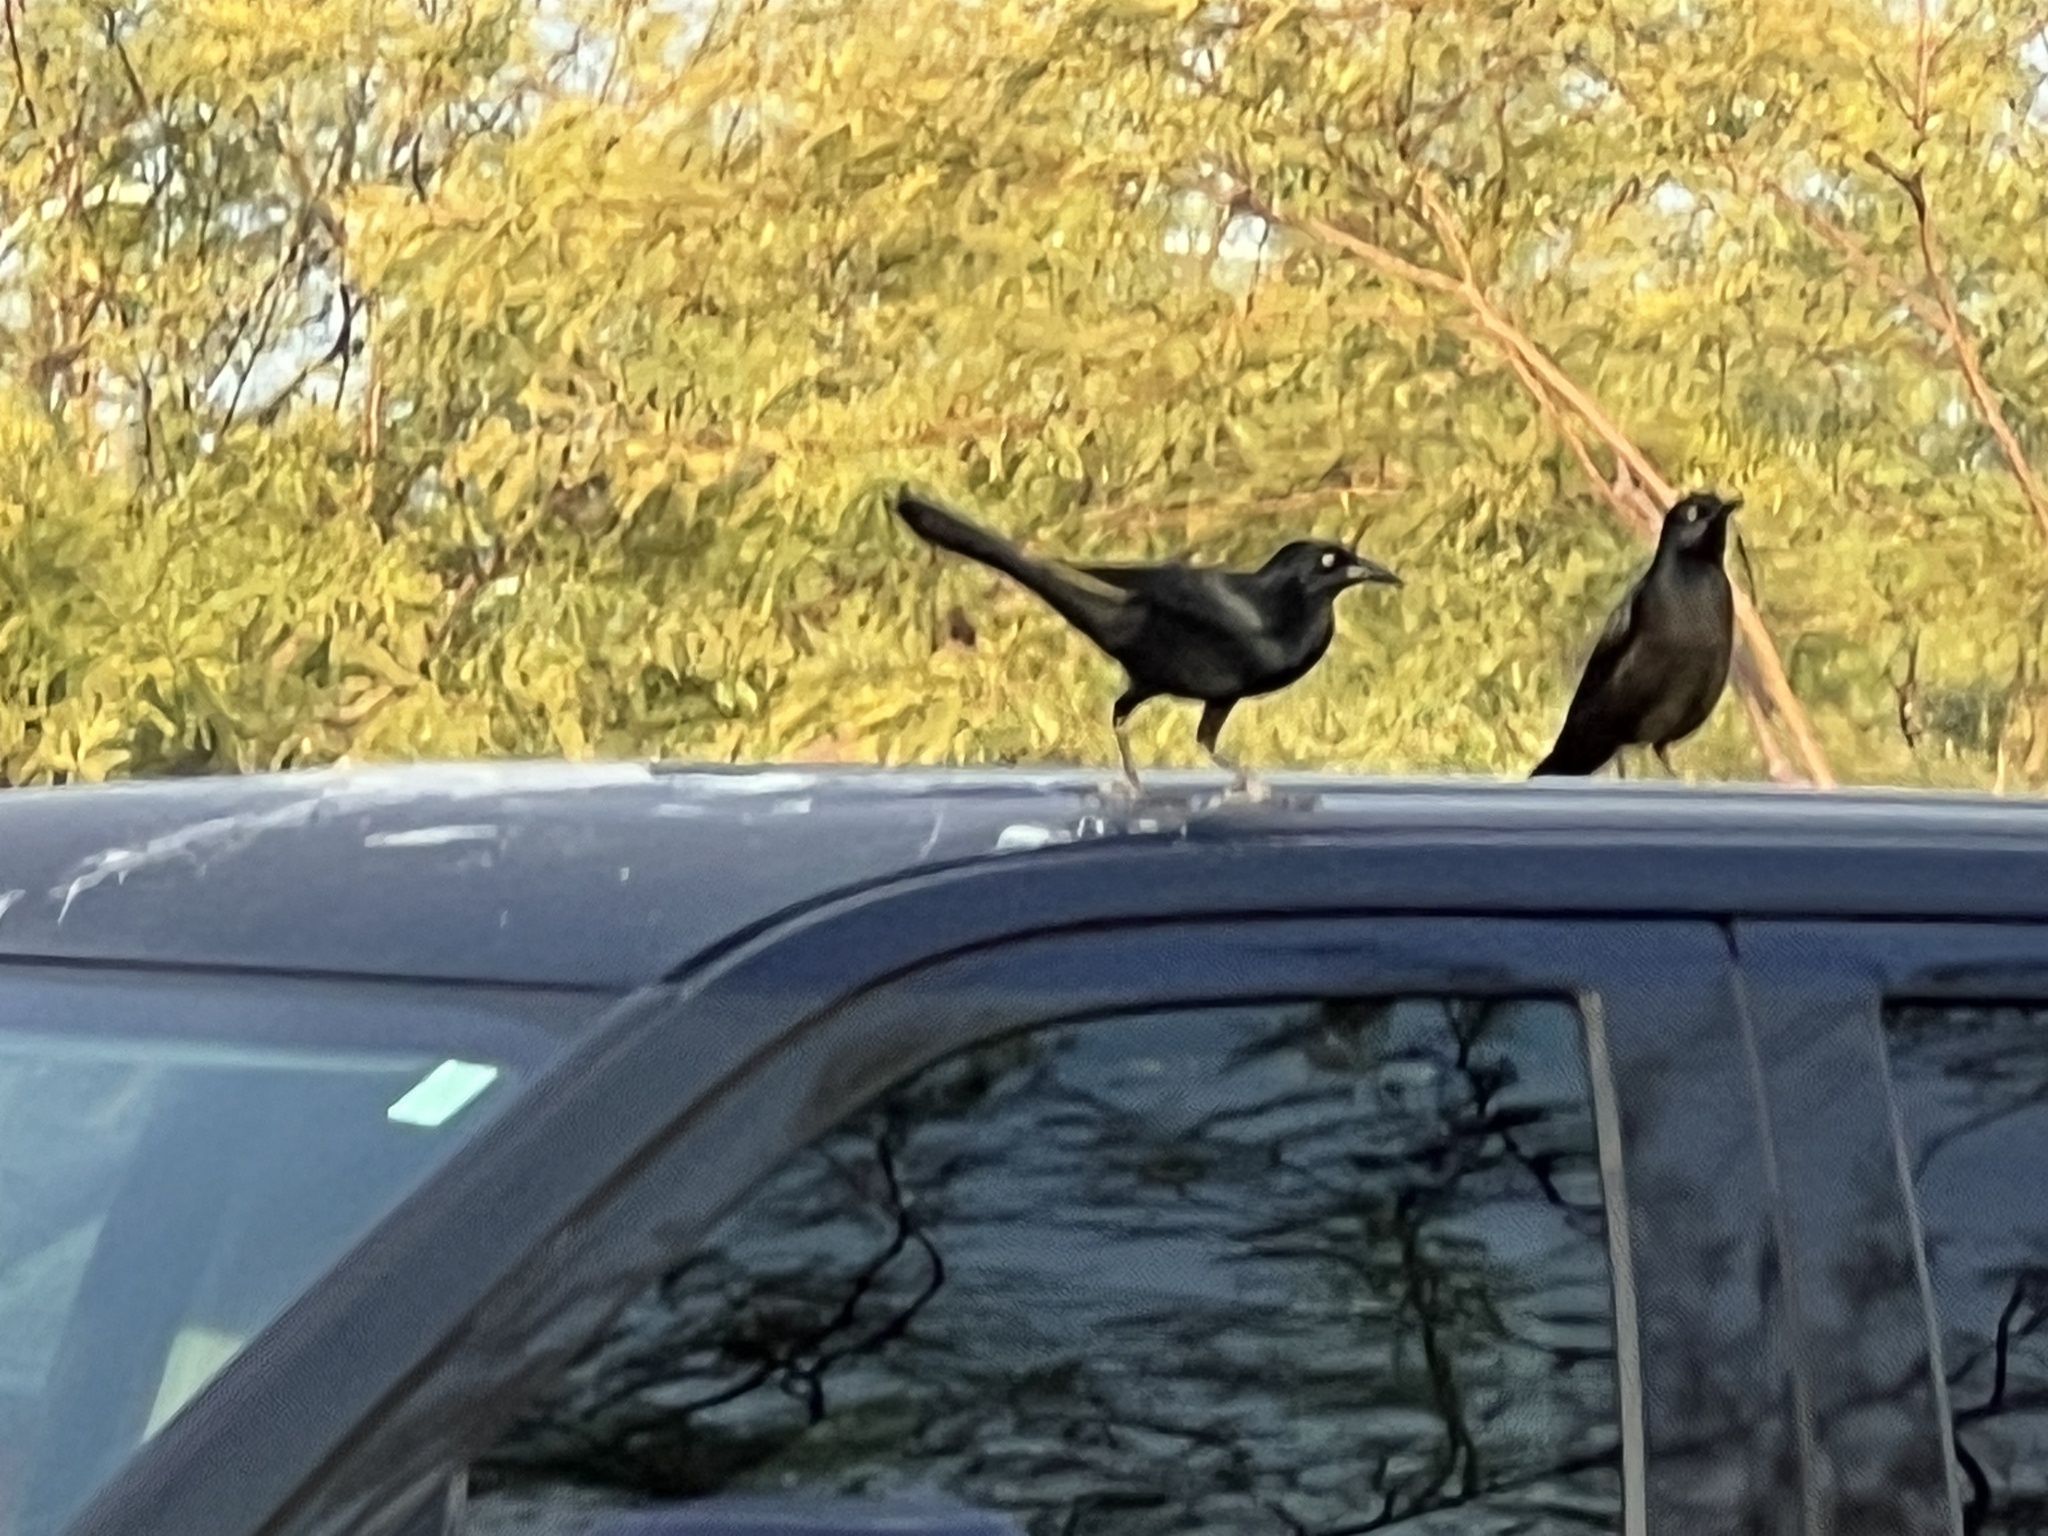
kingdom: Animalia
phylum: Chordata
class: Aves
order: Passeriformes
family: Icteridae
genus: Quiscalus
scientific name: Quiscalus mexicanus
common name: Great-tailed grackle
